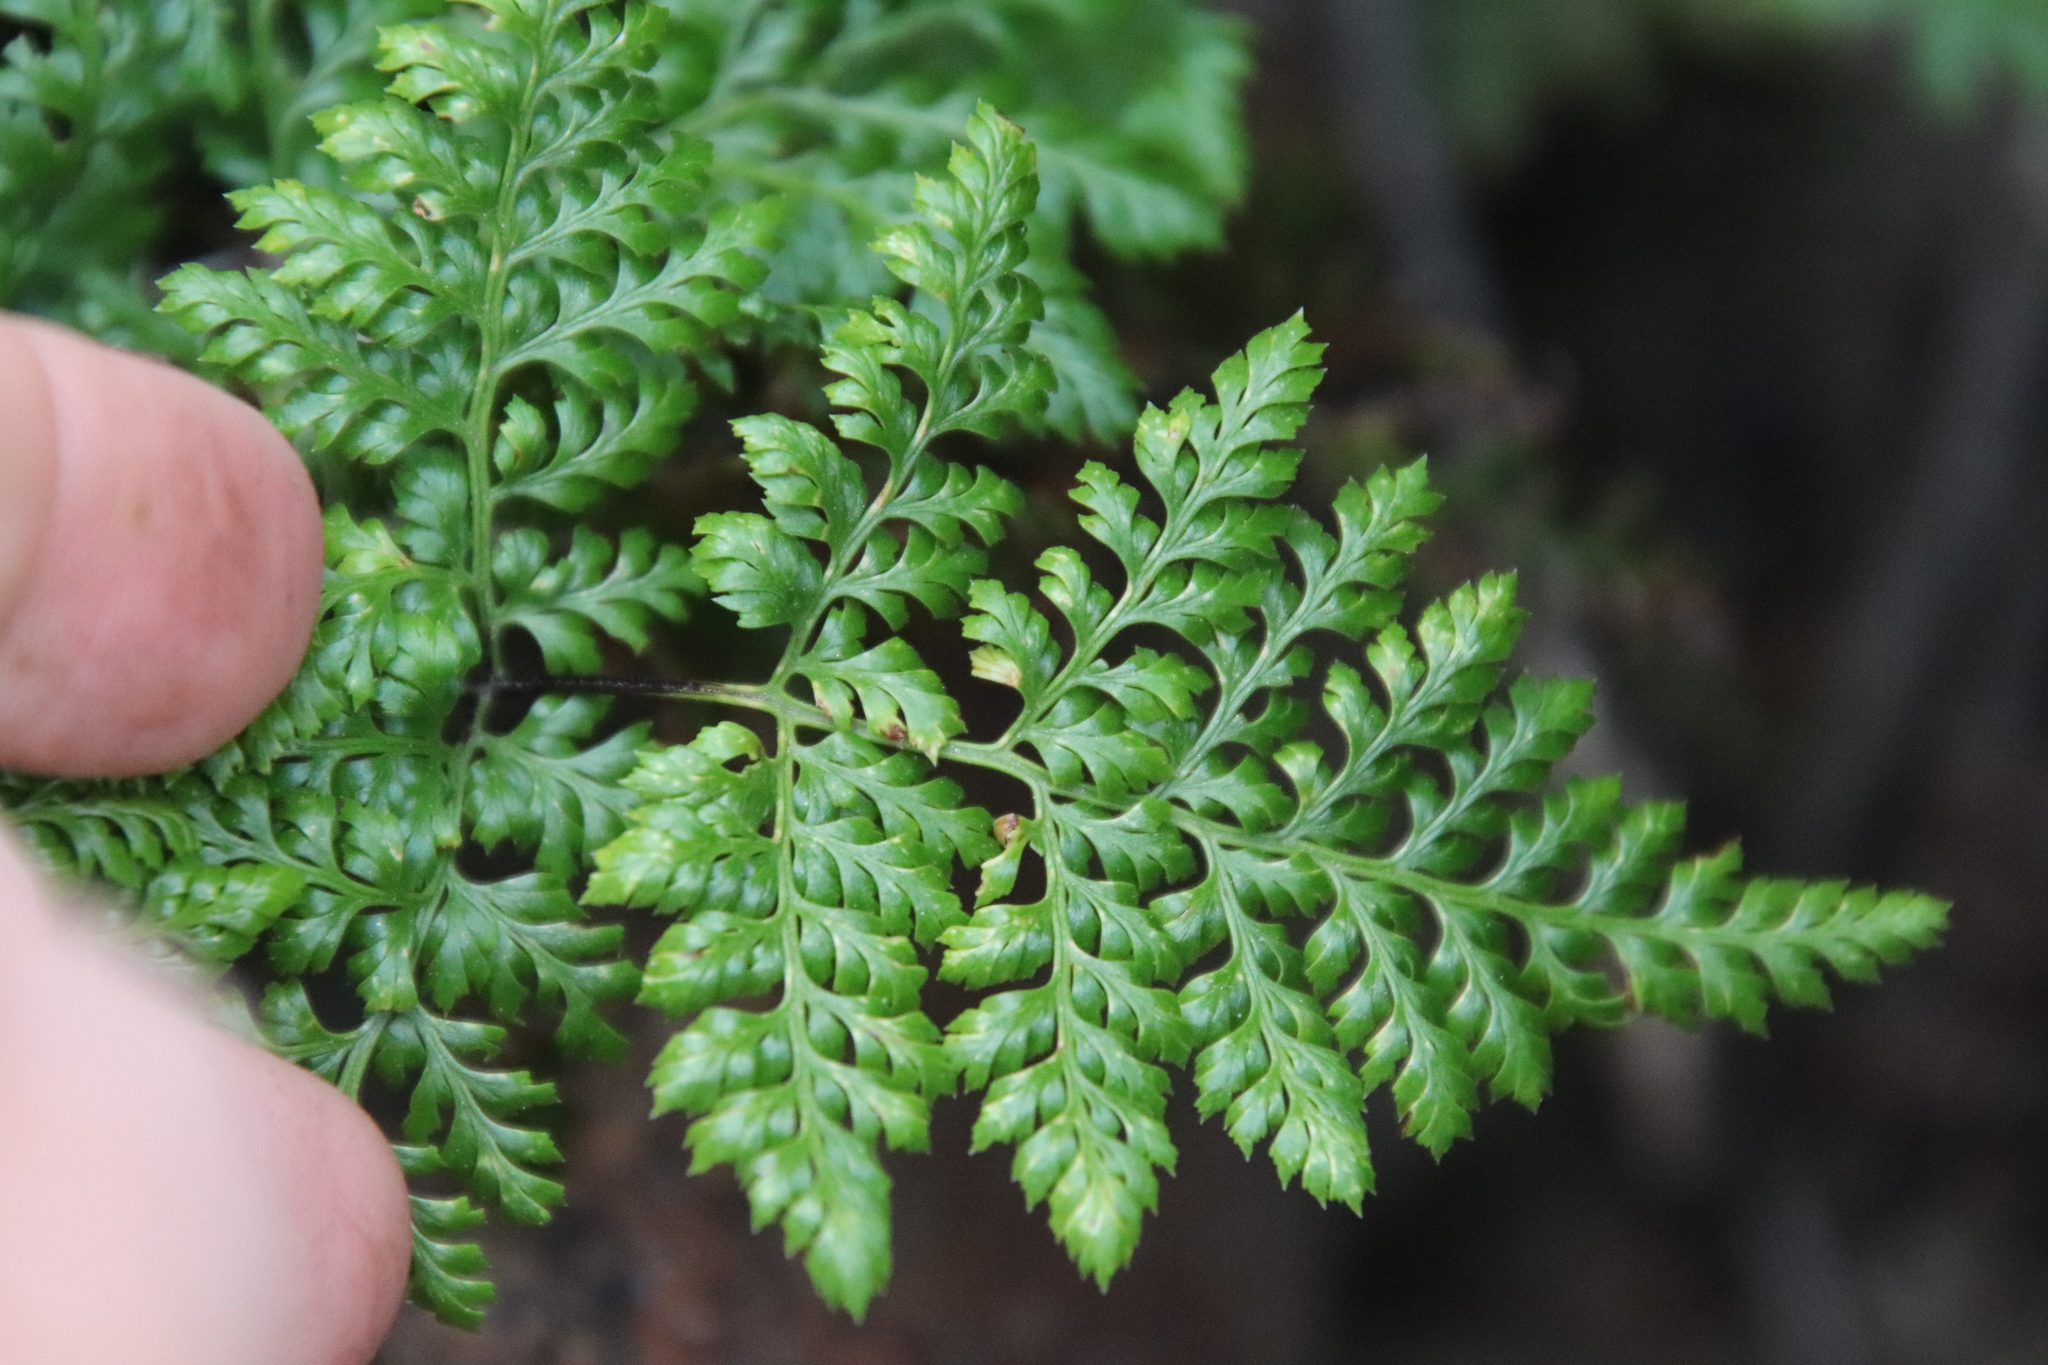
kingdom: Plantae
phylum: Tracheophyta
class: Polypodiopsida
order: Polypodiales
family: Pteridaceae
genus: Aspidotis
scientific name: Aspidotis californica
